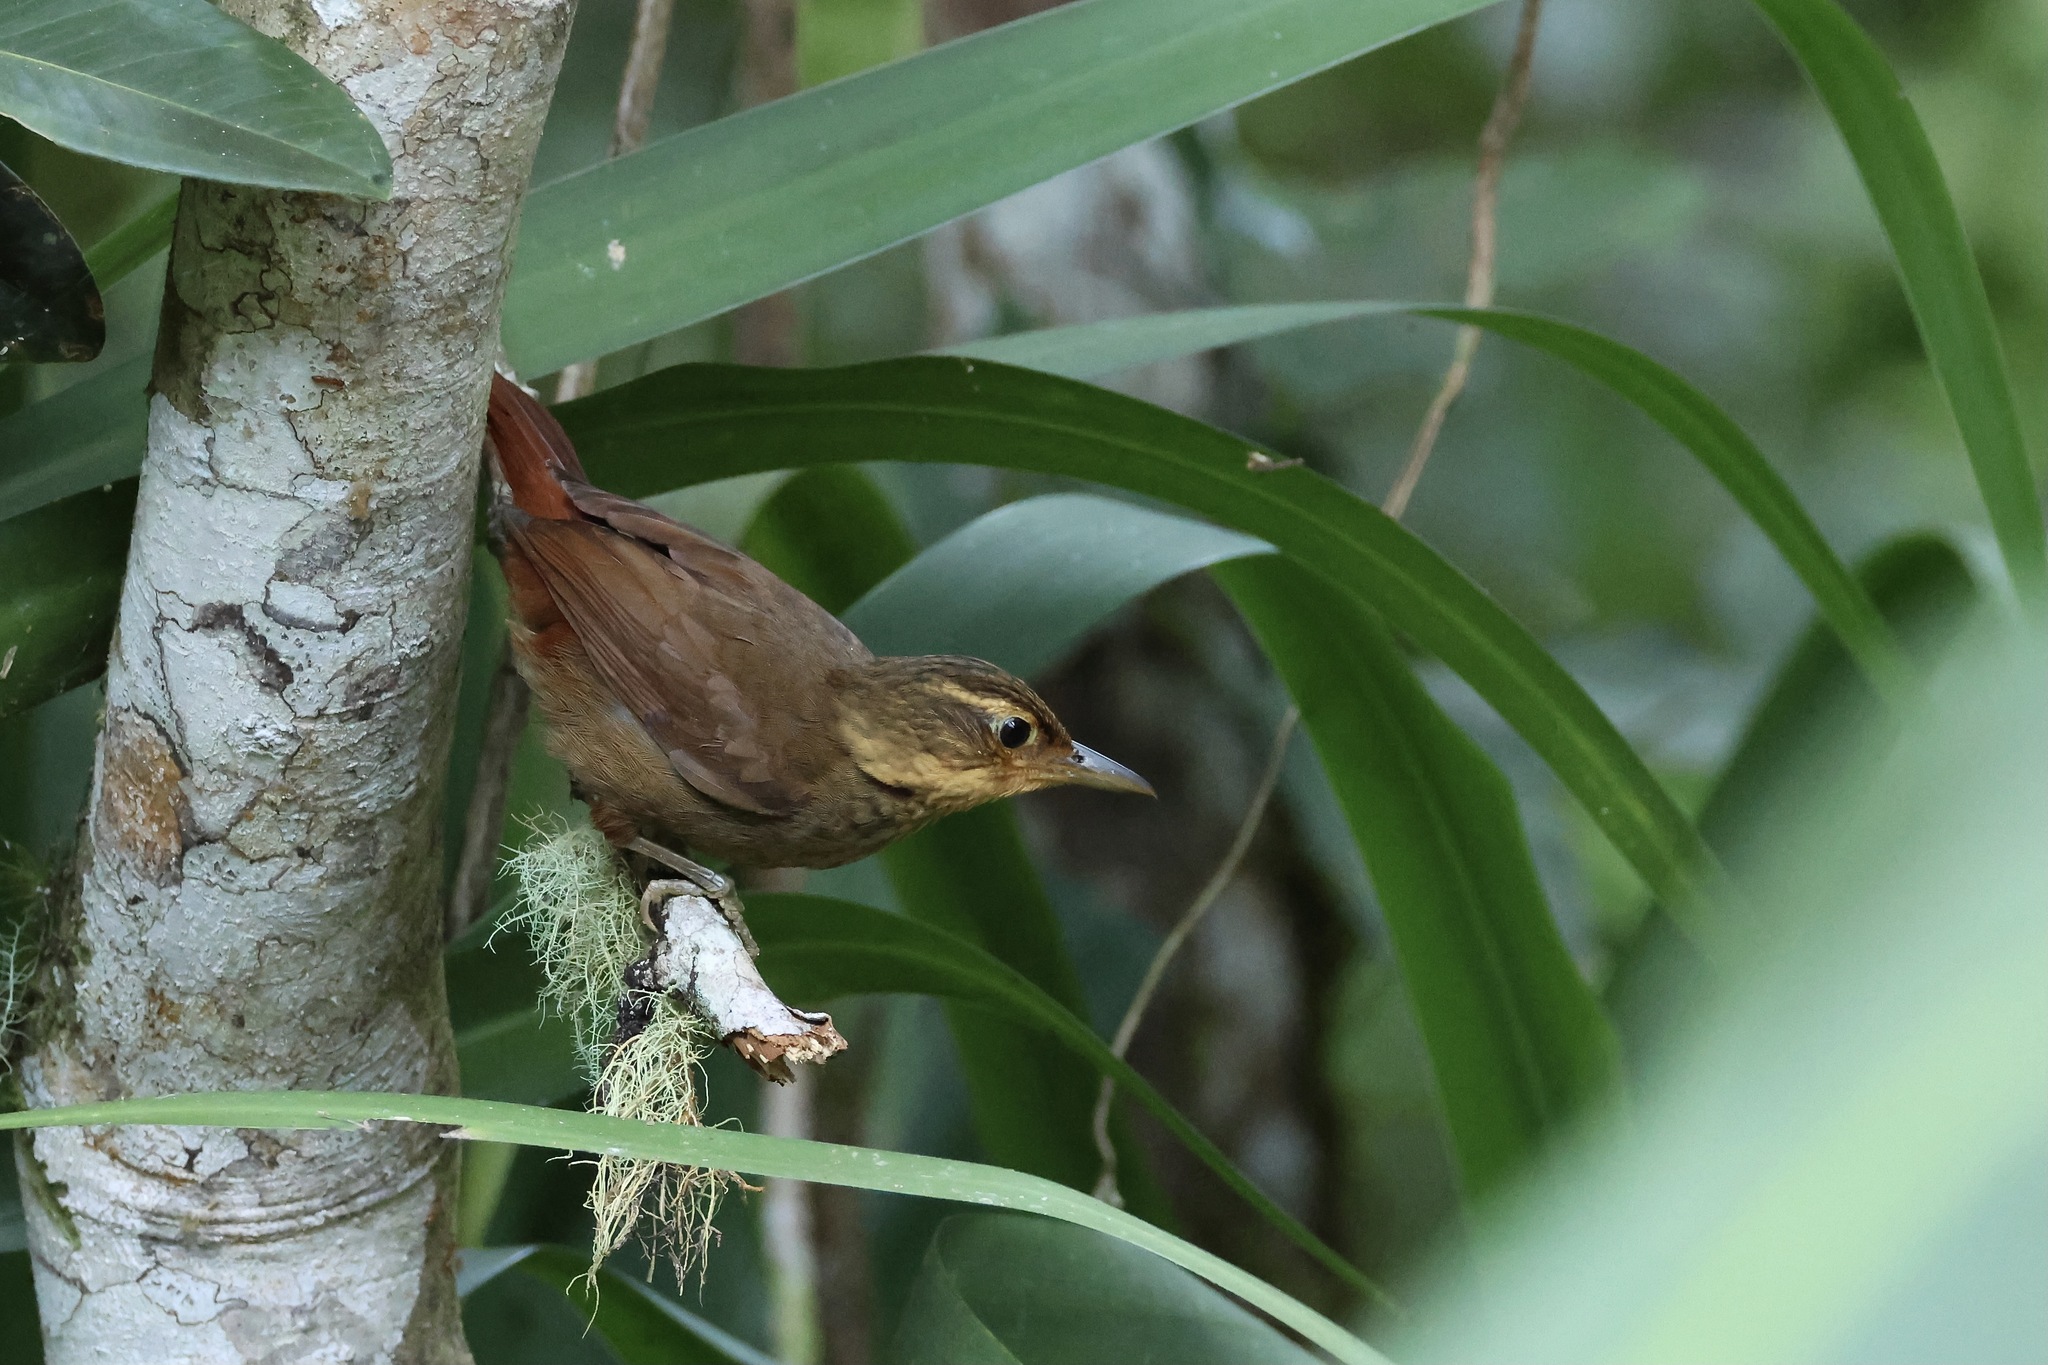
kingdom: Animalia
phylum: Chordata
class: Aves
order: Passeriformes
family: Furnariidae
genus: Automolus
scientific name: Automolus ochrolaemus
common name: Buff-throated foliage-gleaner
